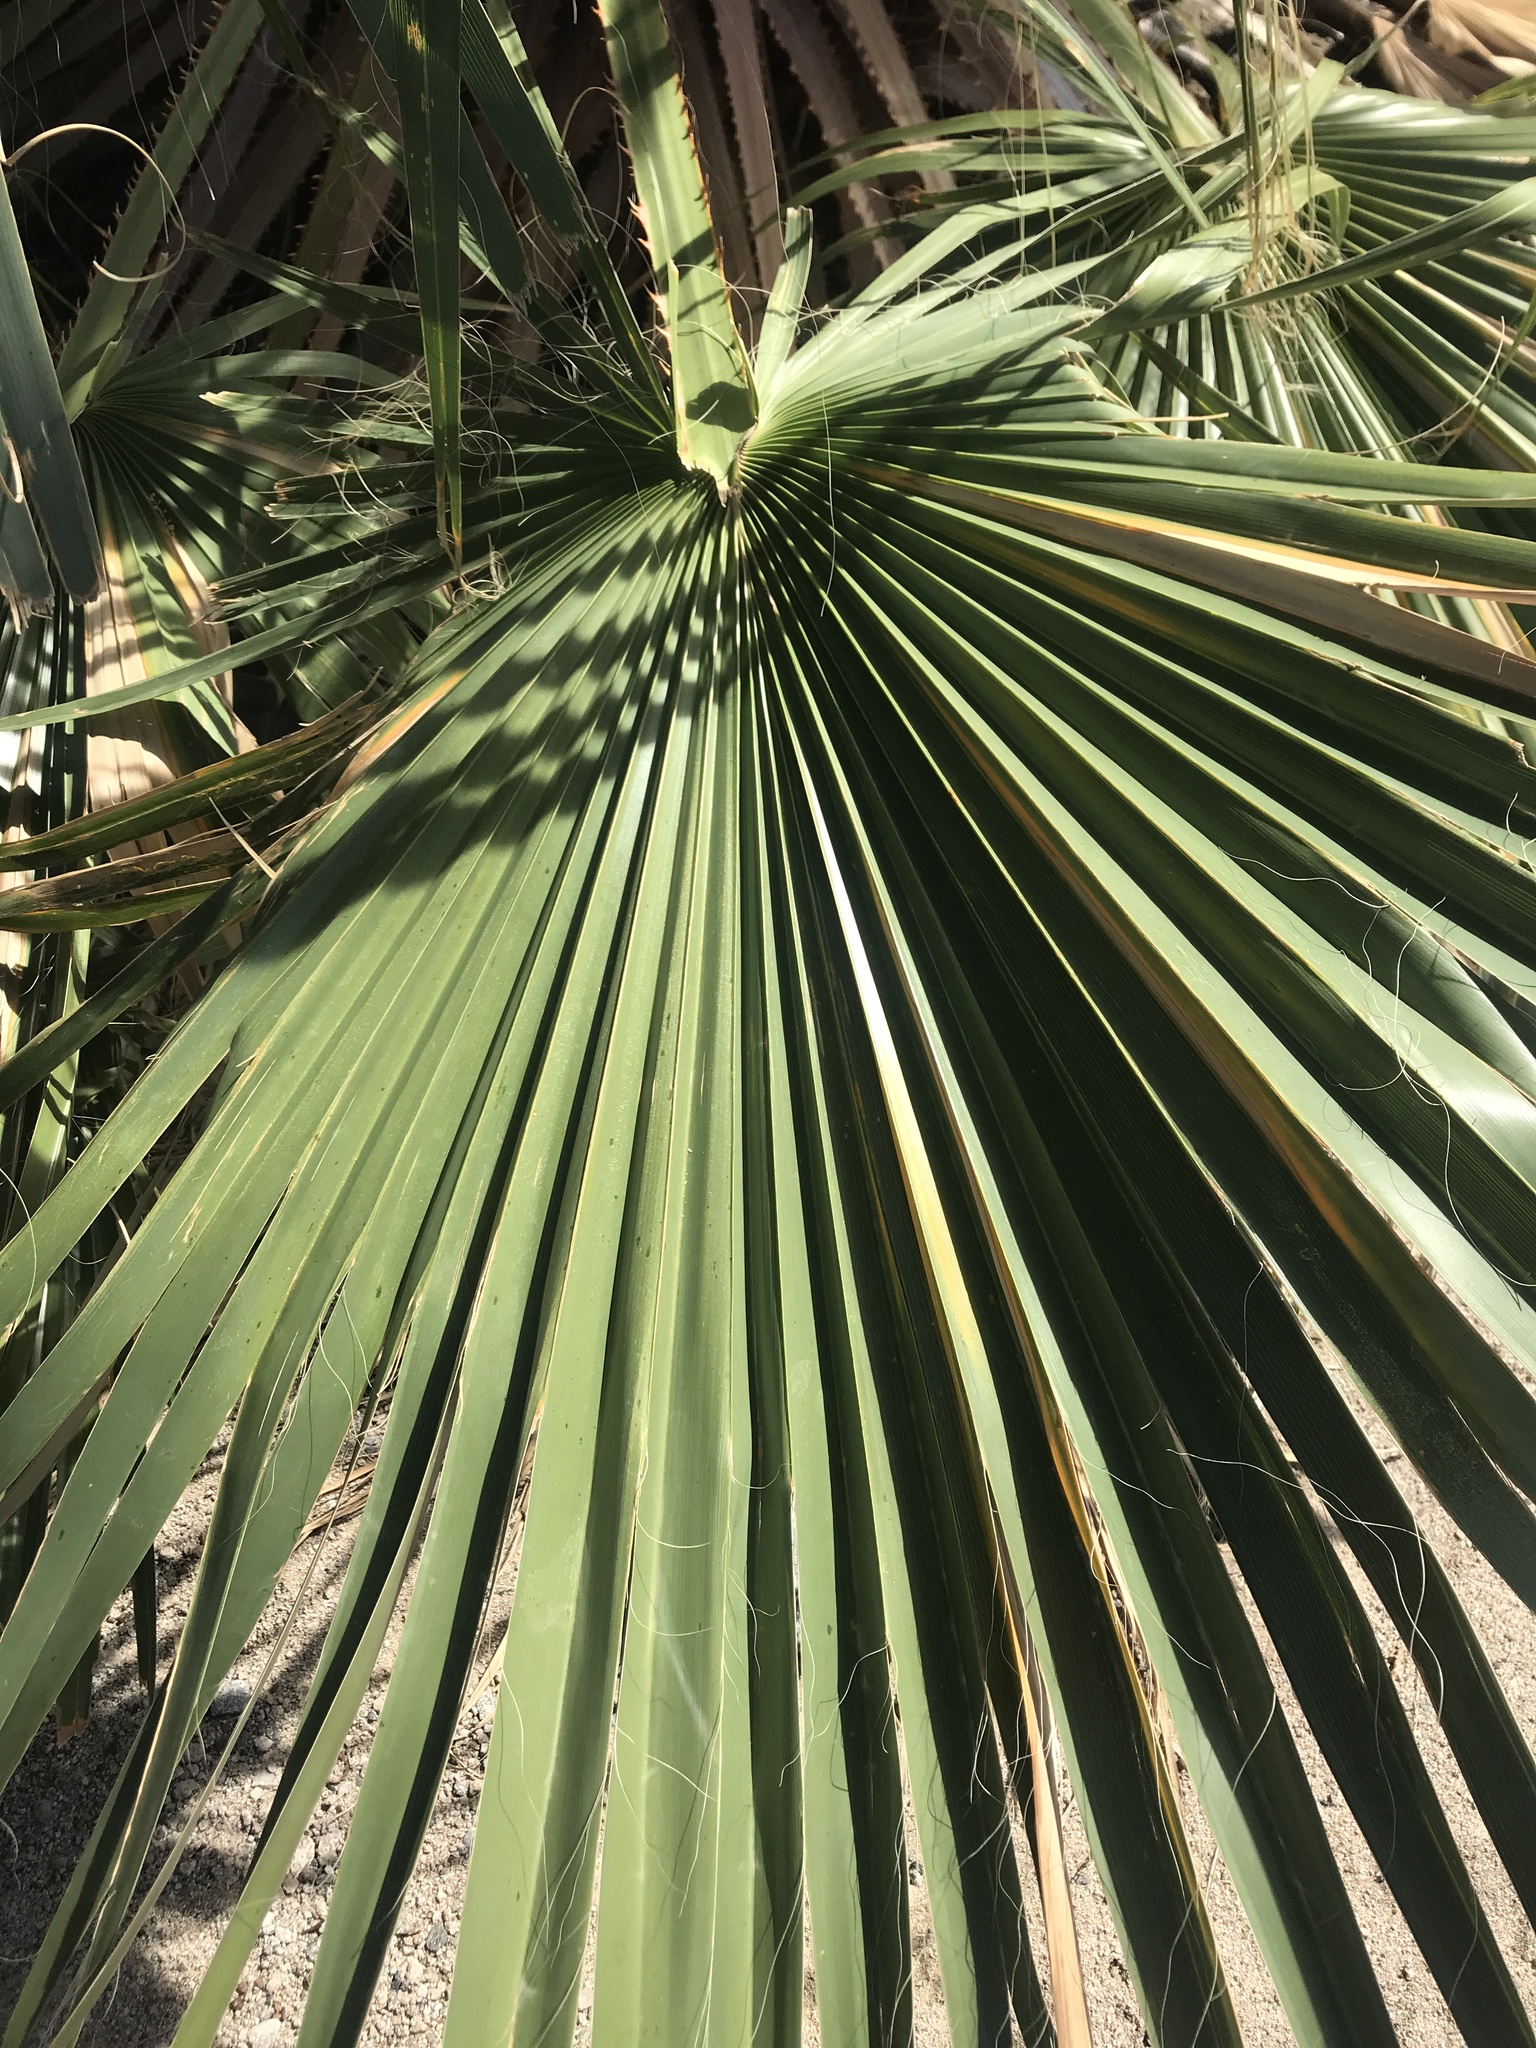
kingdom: Plantae
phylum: Tracheophyta
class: Liliopsida
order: Arecales
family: Arecaceae
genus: Washingtonia
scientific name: Washingtonia filifera
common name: California fan palm
